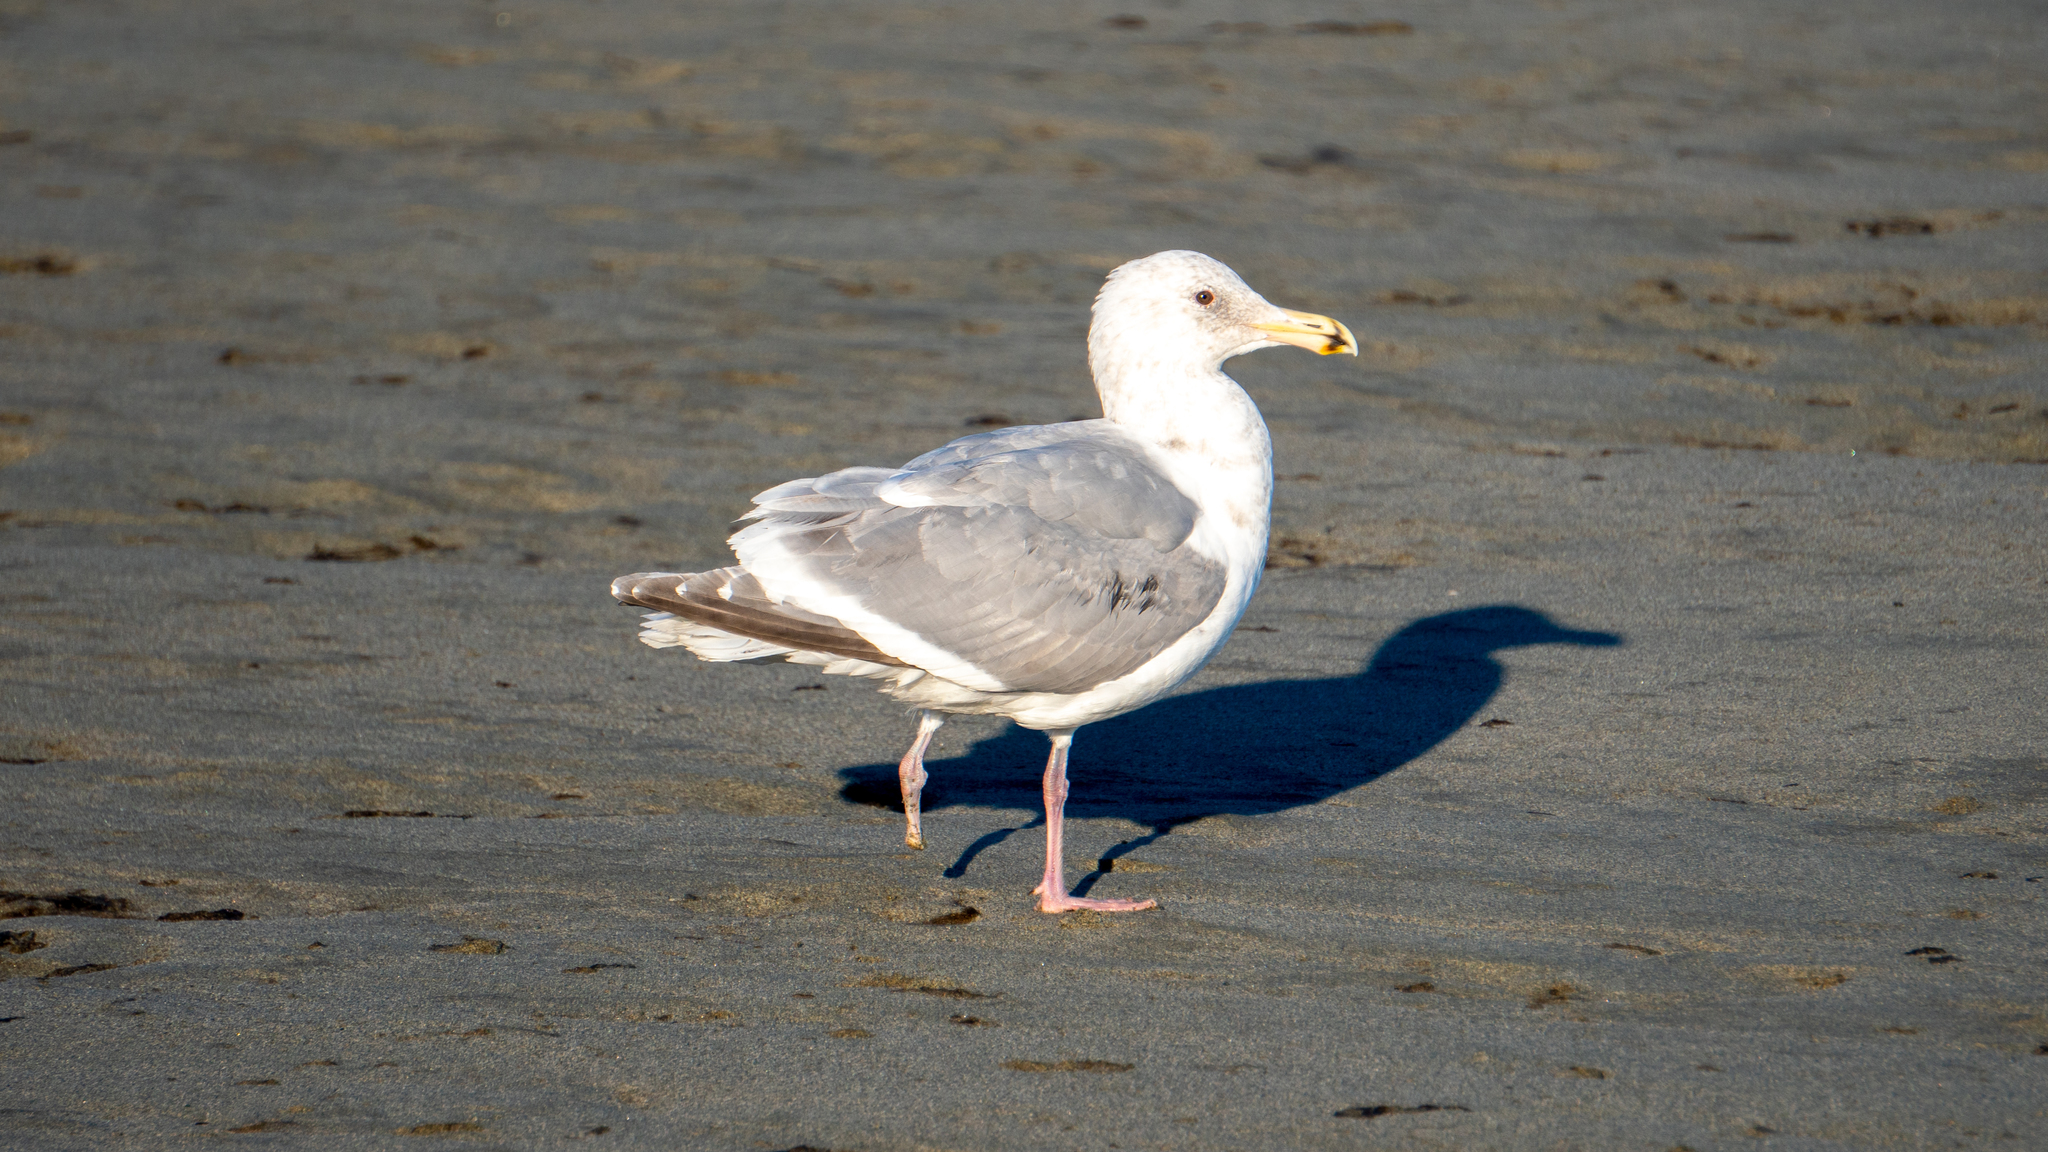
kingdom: Animalia
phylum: Chordata
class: Aves
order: Charadriiformes
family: Laridae
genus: Larus
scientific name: Larus
